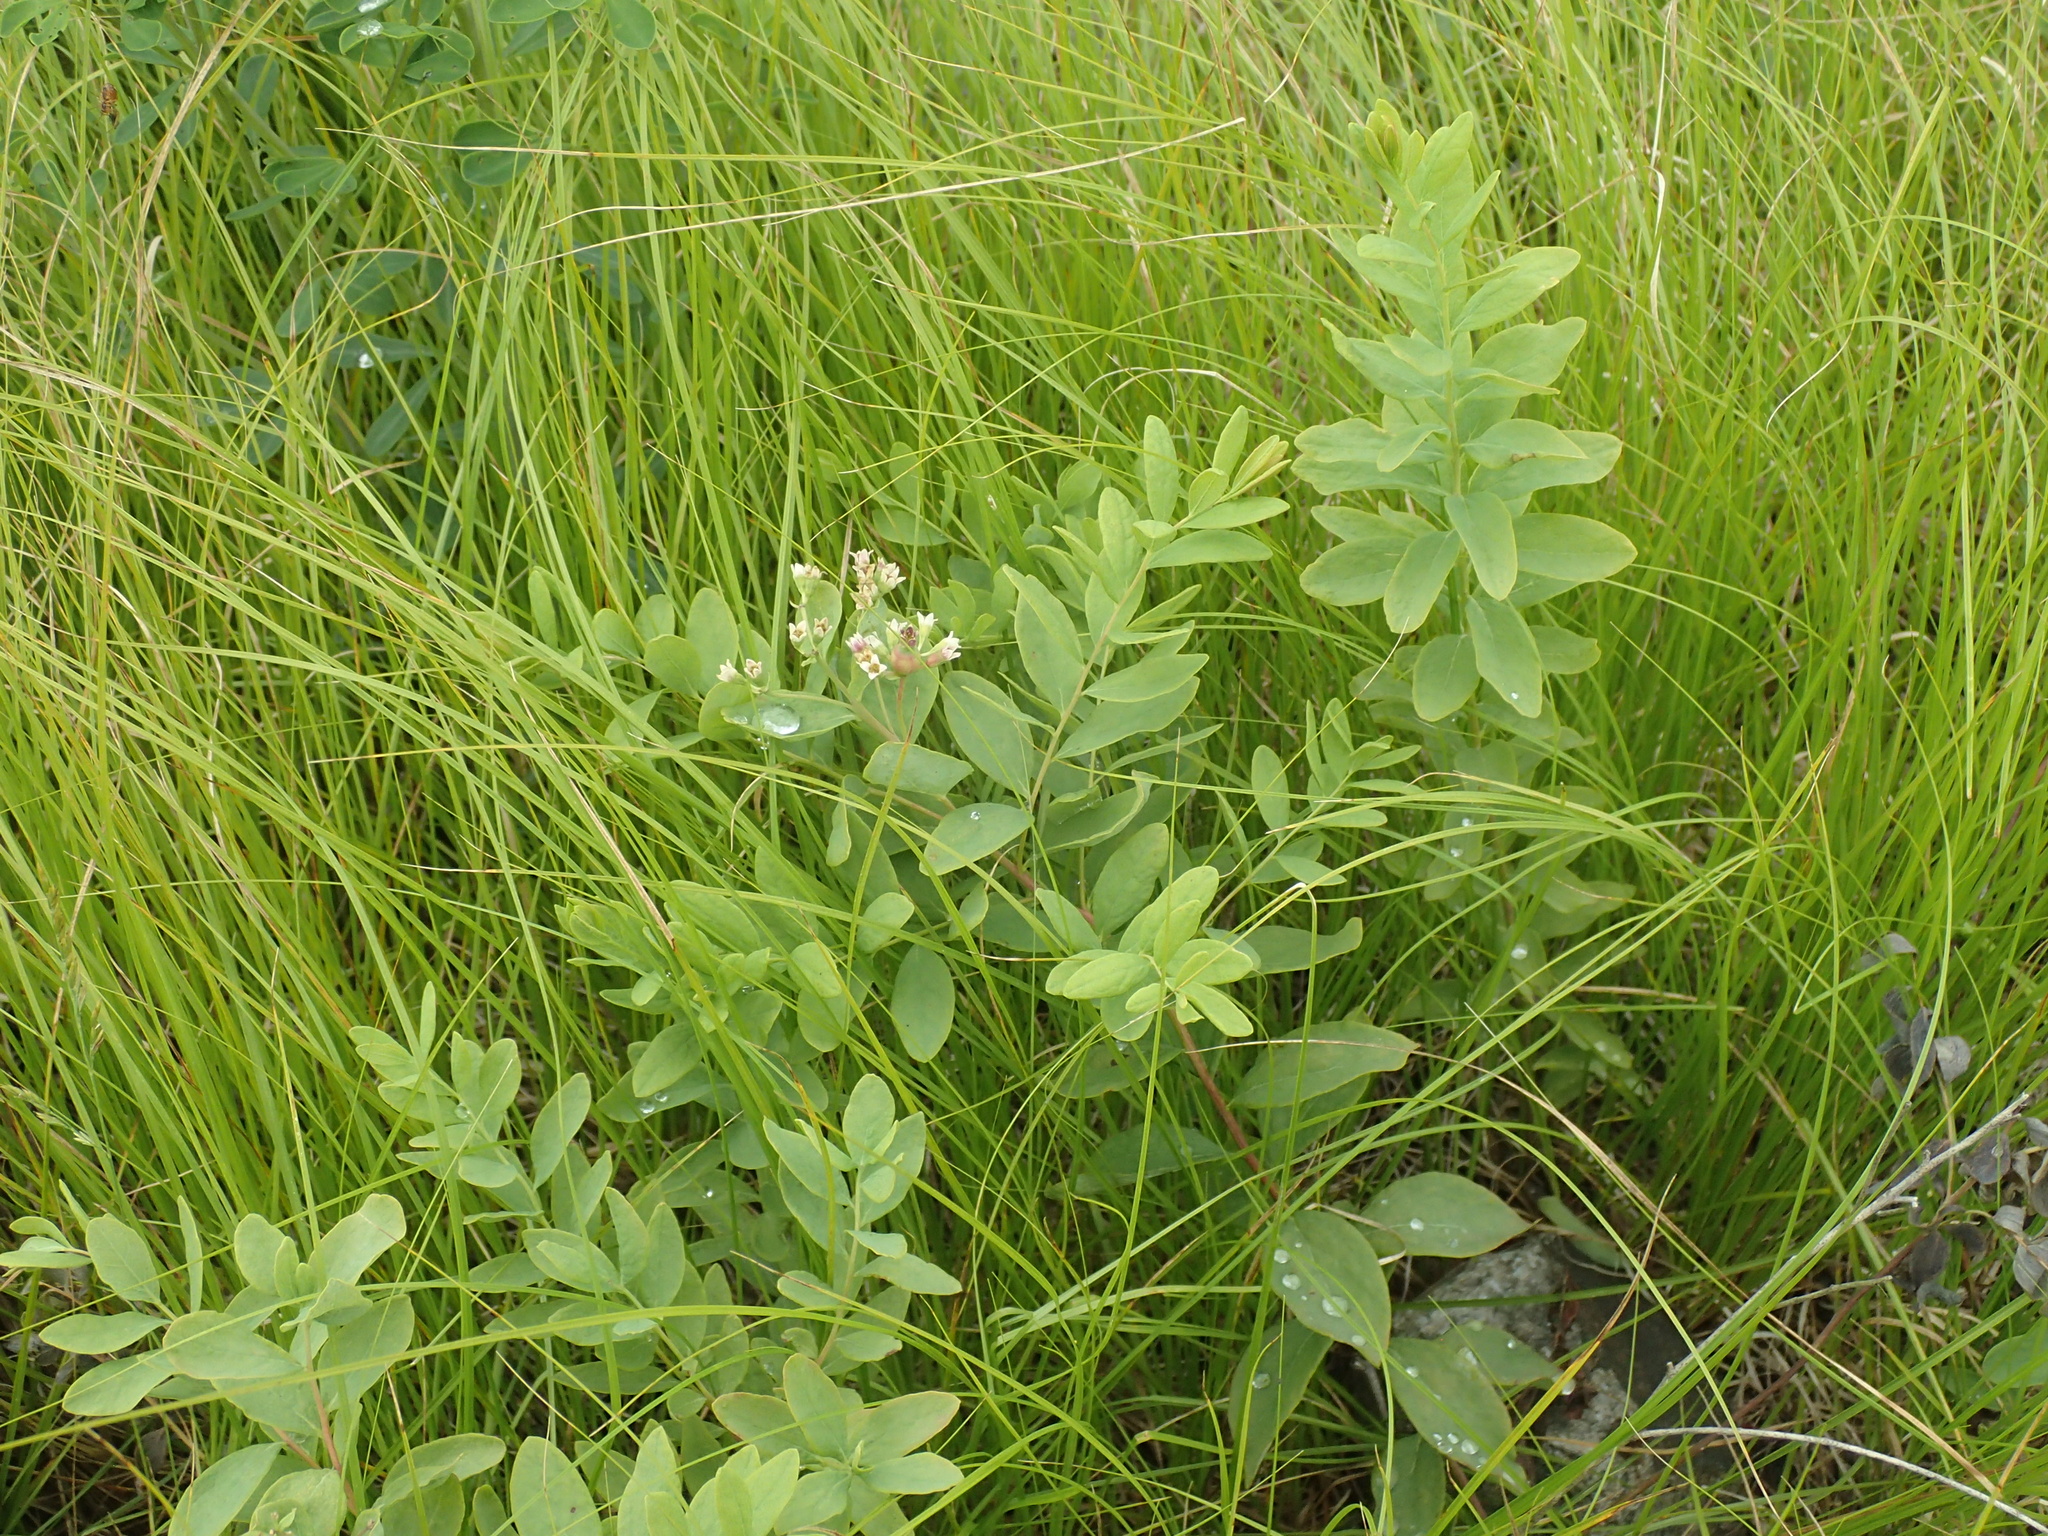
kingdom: Plantae
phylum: Tracheophyta
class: Magnoliopsida
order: Santalales
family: Comandraceae
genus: Comandra
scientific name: Comandra umbellata
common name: Bastard toadflax
